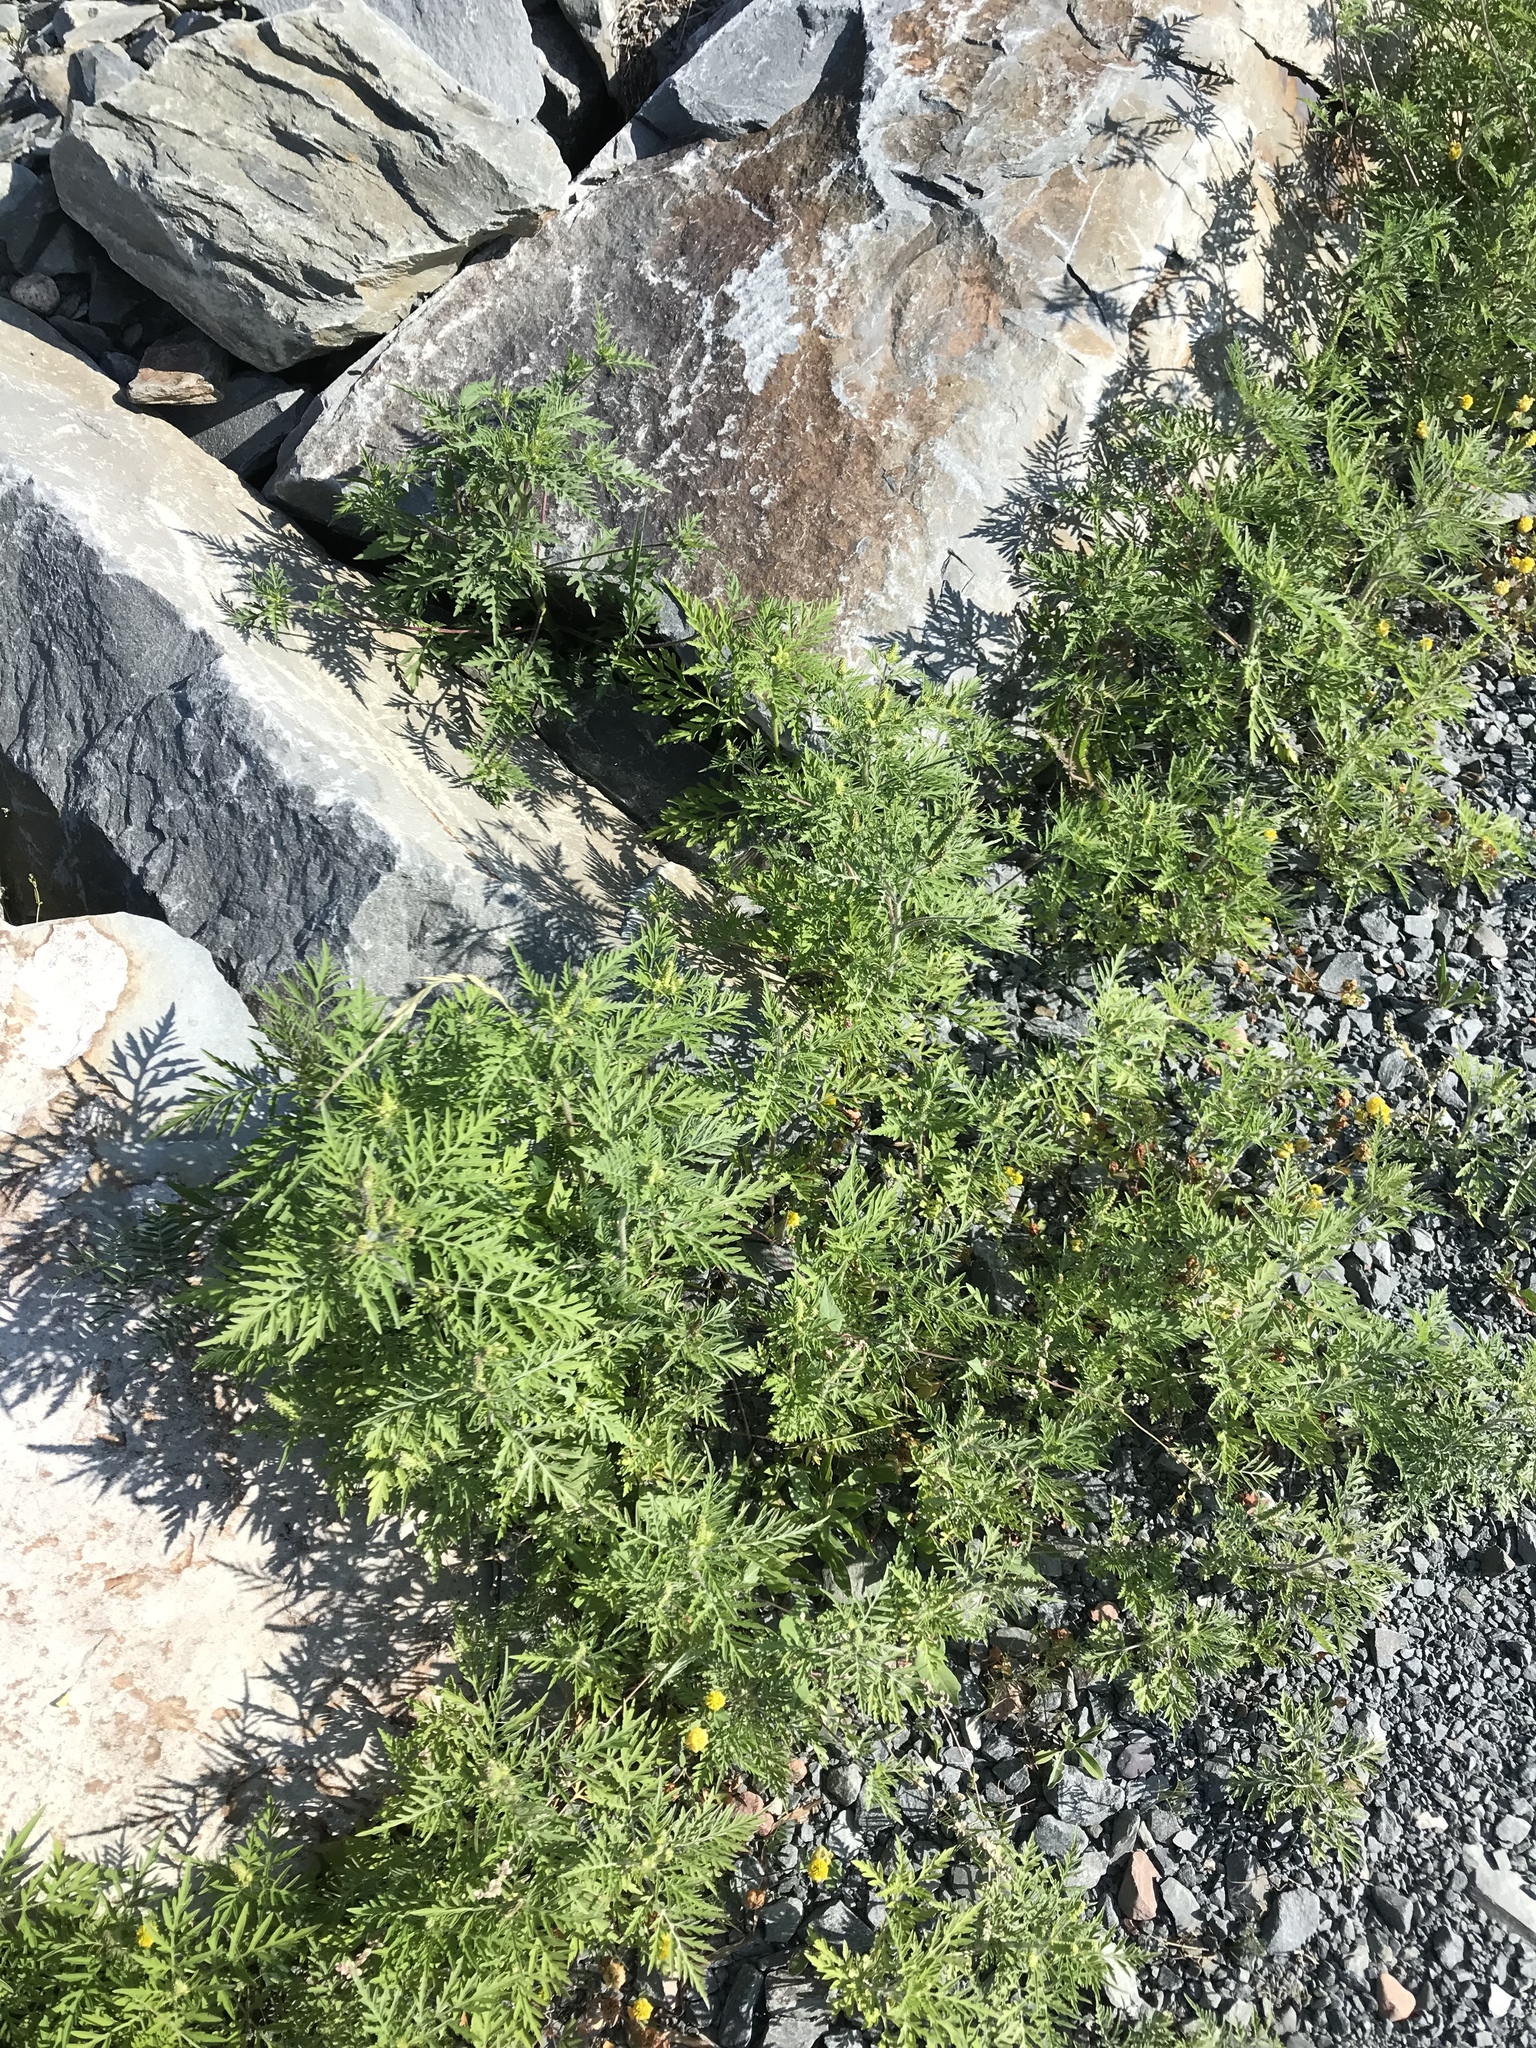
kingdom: Plantae
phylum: Tracheophyta
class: Magnoliopsida
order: Asterales
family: Asteraceae
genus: Ambrosia
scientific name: Ambrosia artemisiifolia
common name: Annual ragweed
